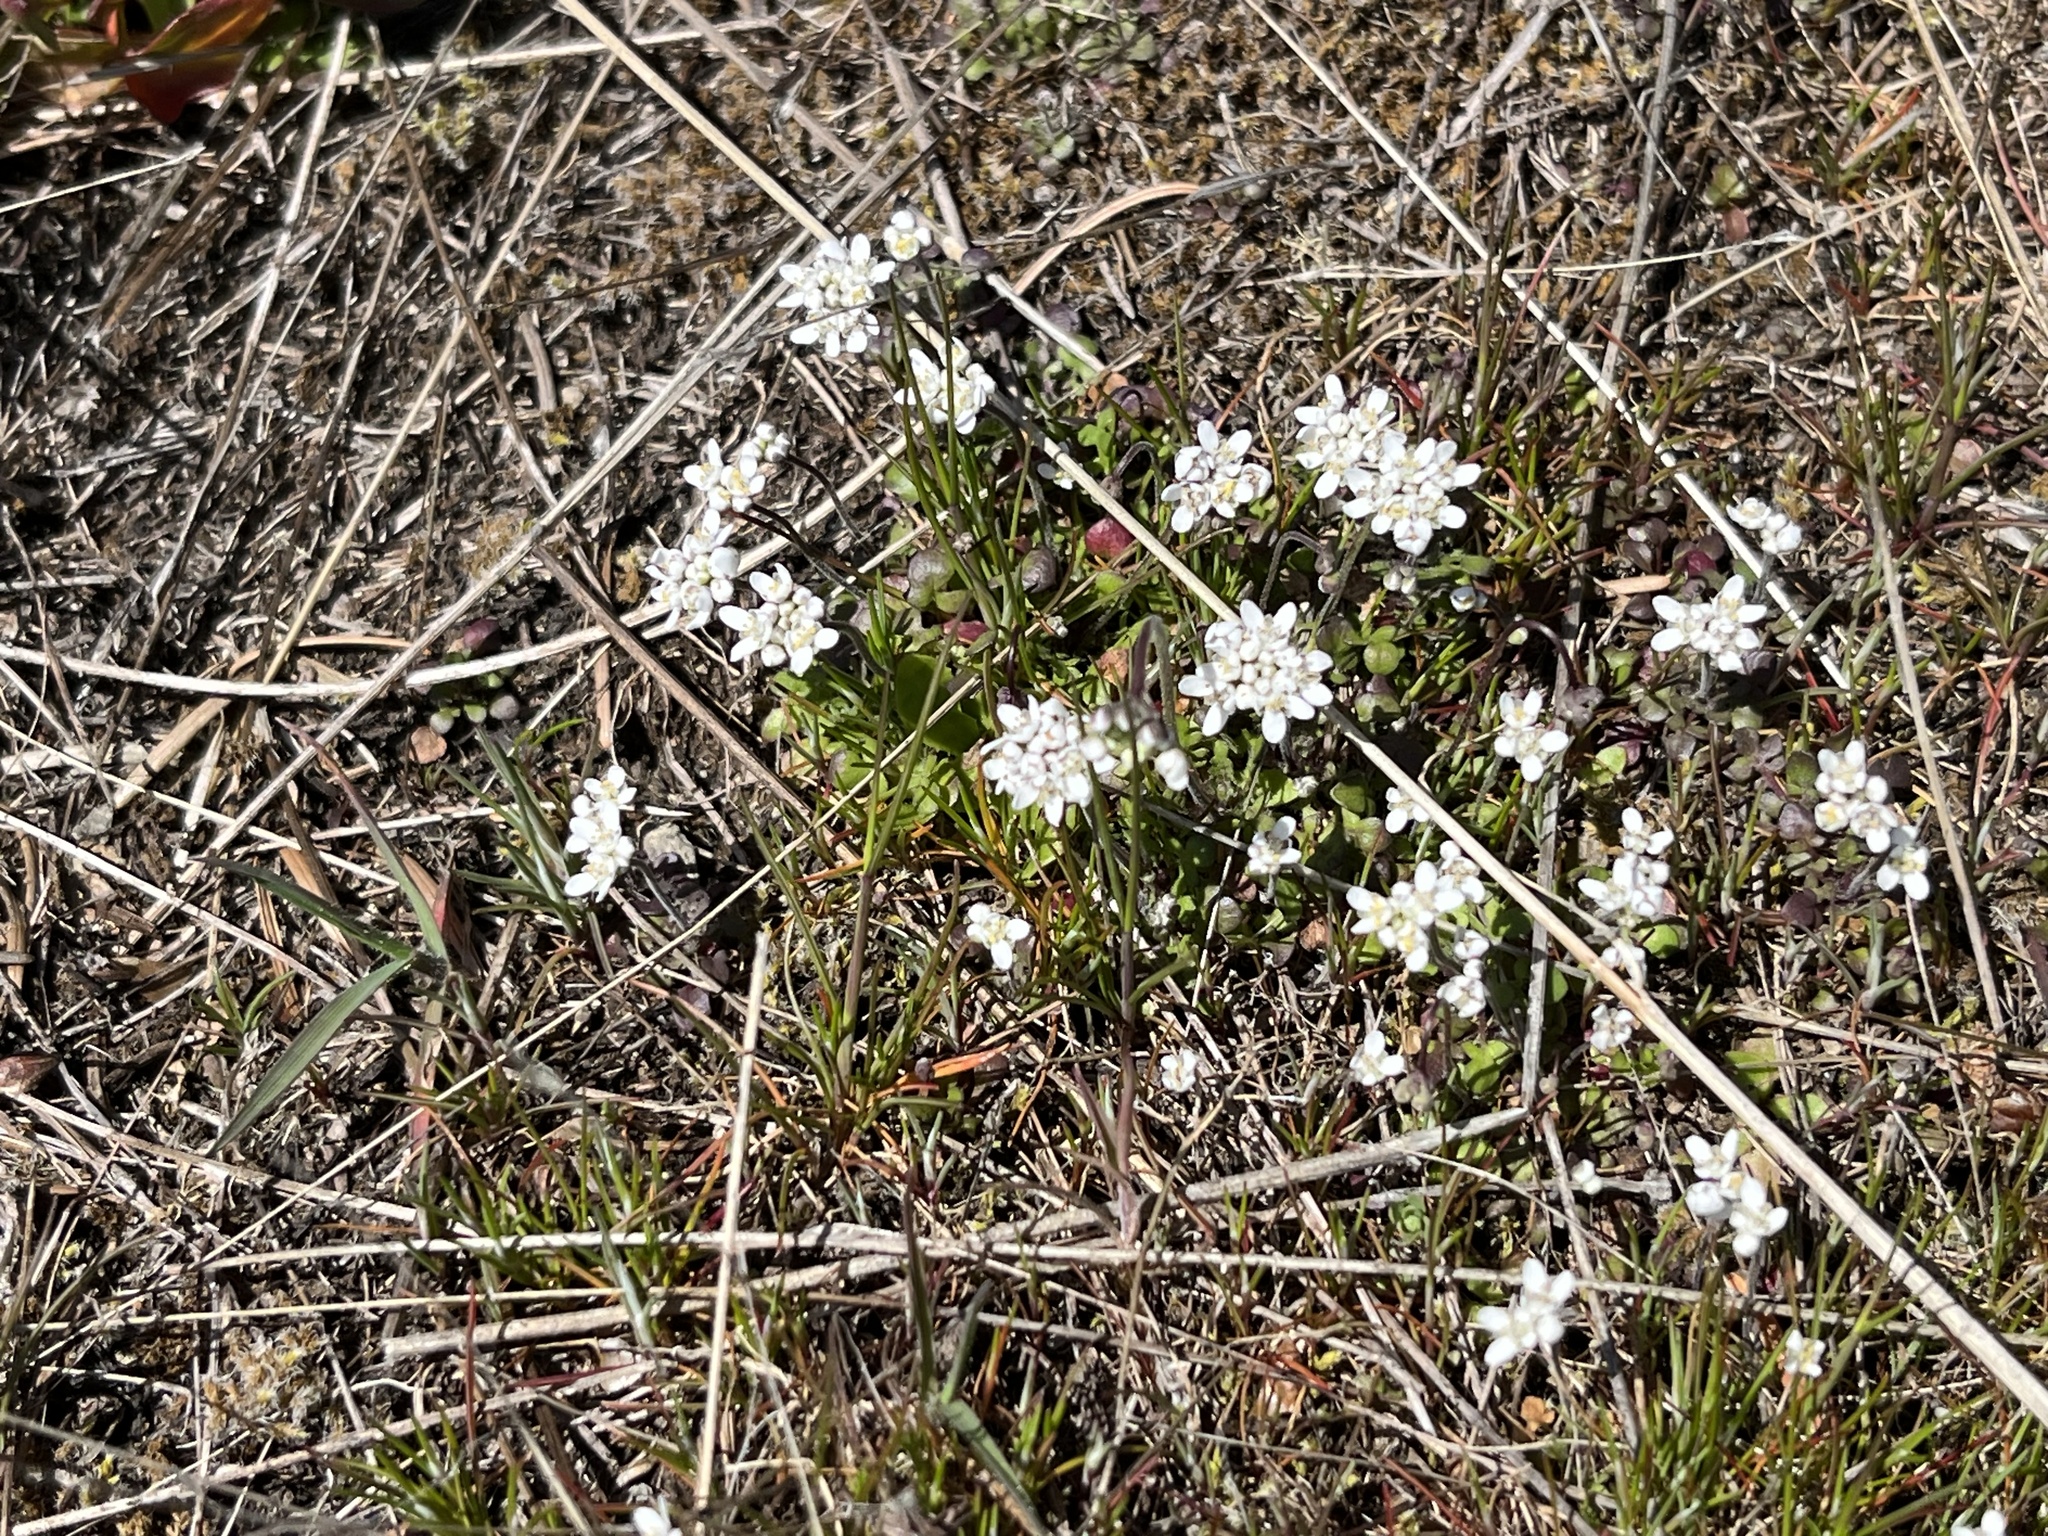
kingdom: Plantae
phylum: Tracheophyta
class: Magnoliopsida
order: Brassicales
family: Brassicaceae
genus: Teesdalia
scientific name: Teesdalia nudicaulis
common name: Shepherd's cress
